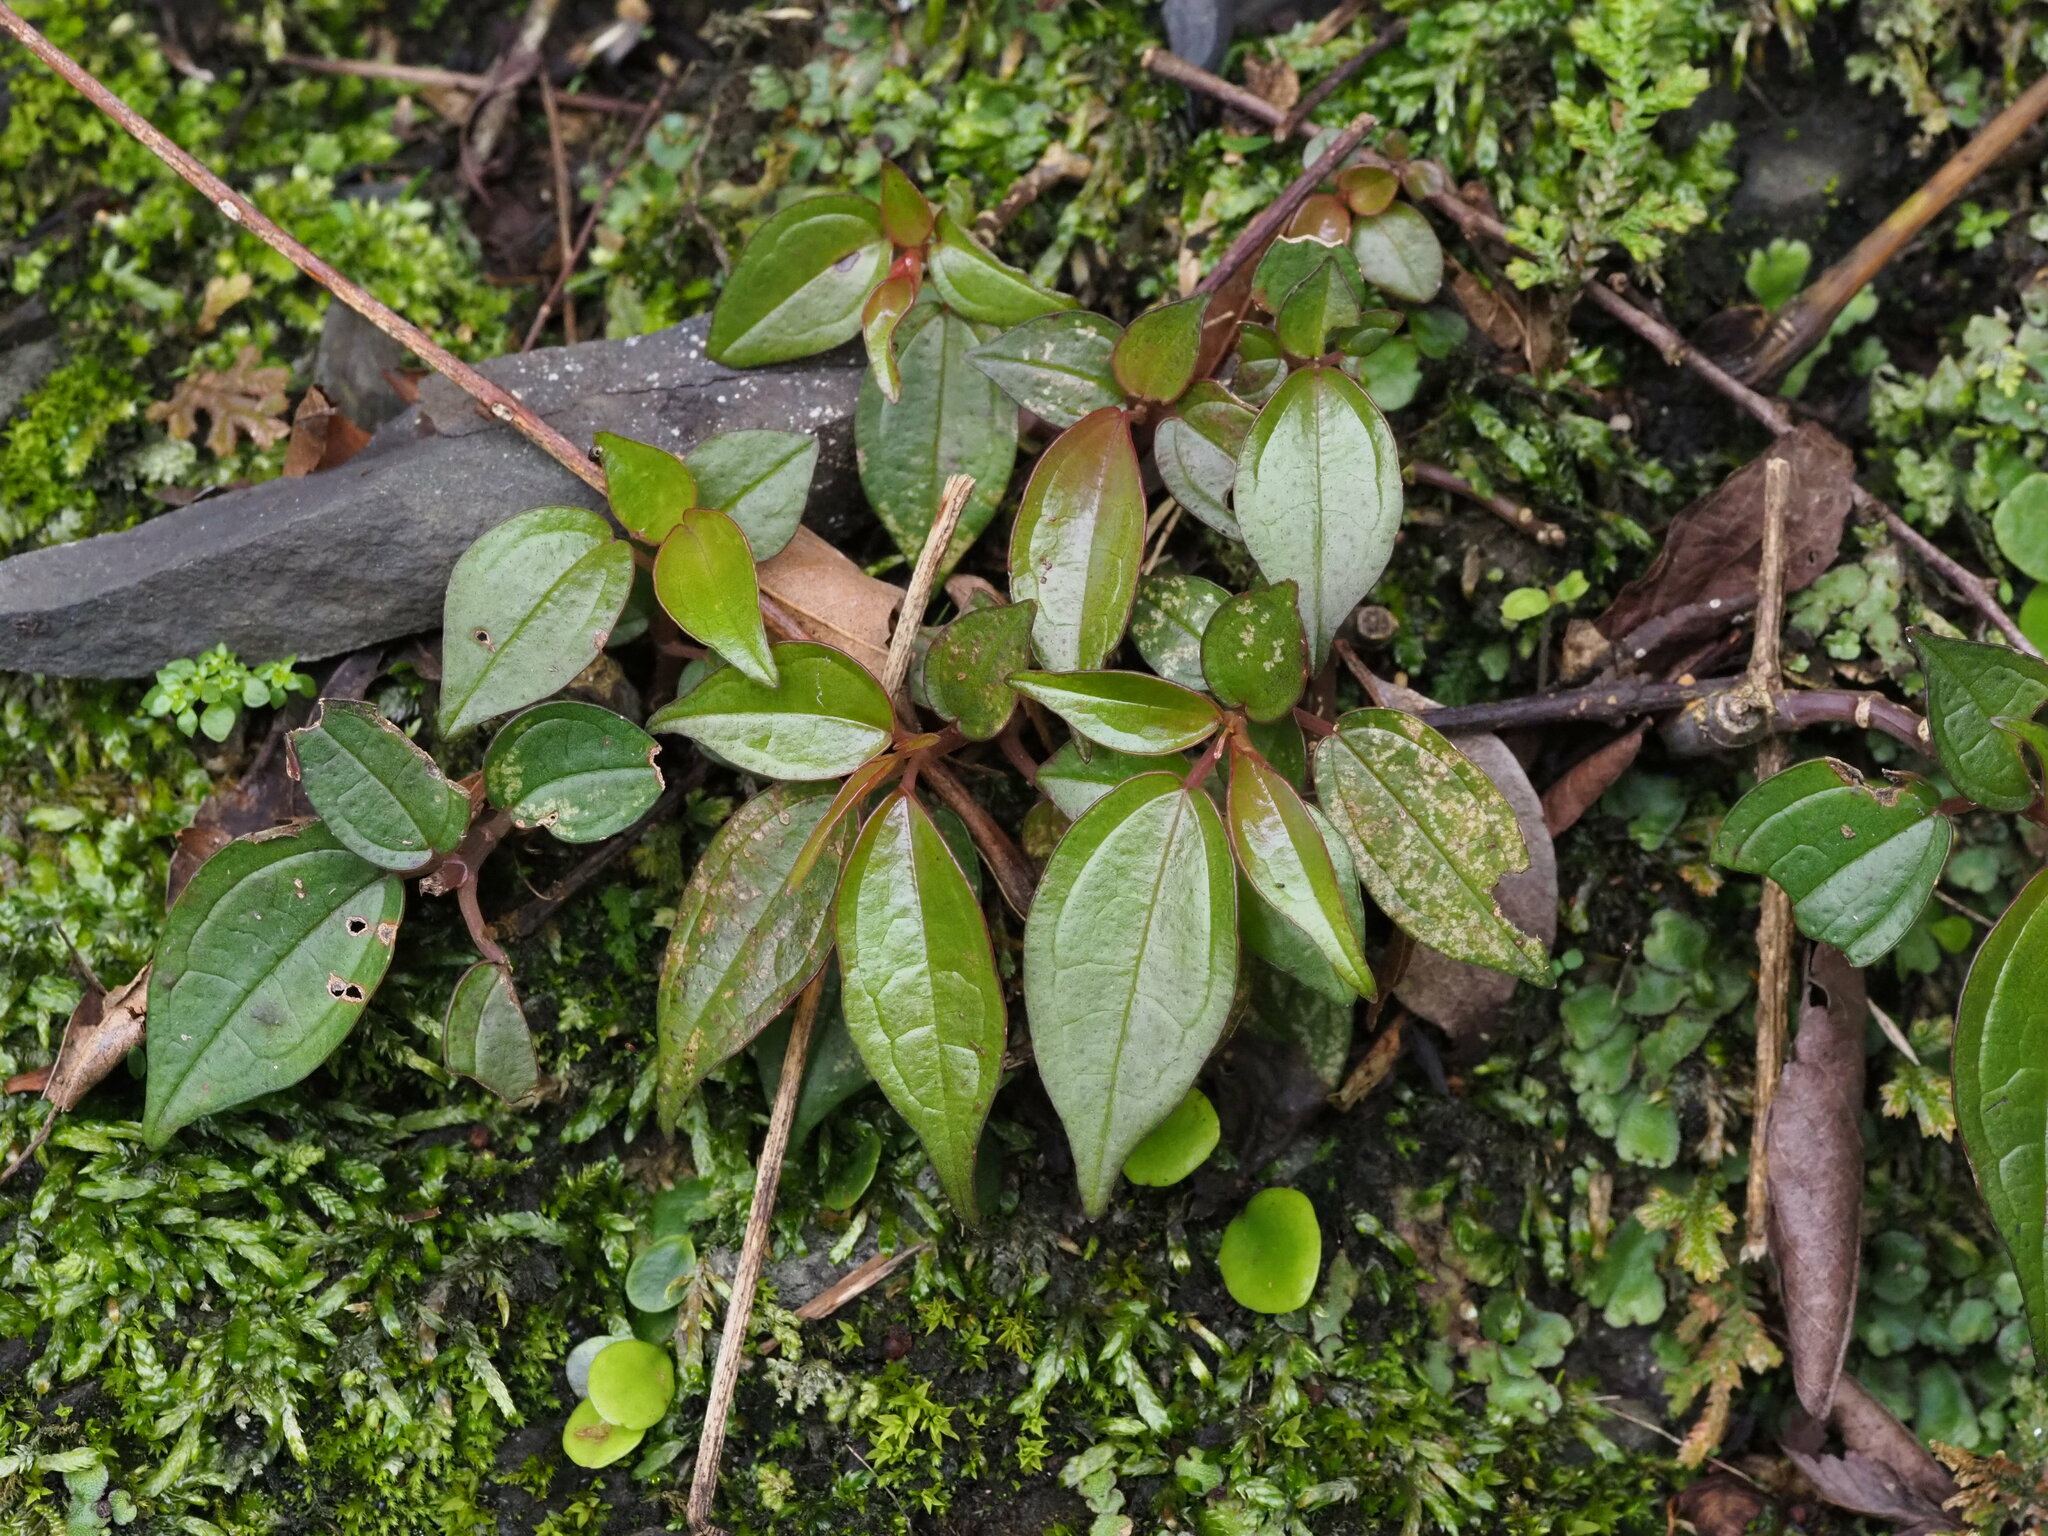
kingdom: Plantae
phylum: Tracheophyta
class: Magnoliopsida
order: Rosales
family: Urticaceae
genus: Pilea
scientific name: Pilea plataniflora
